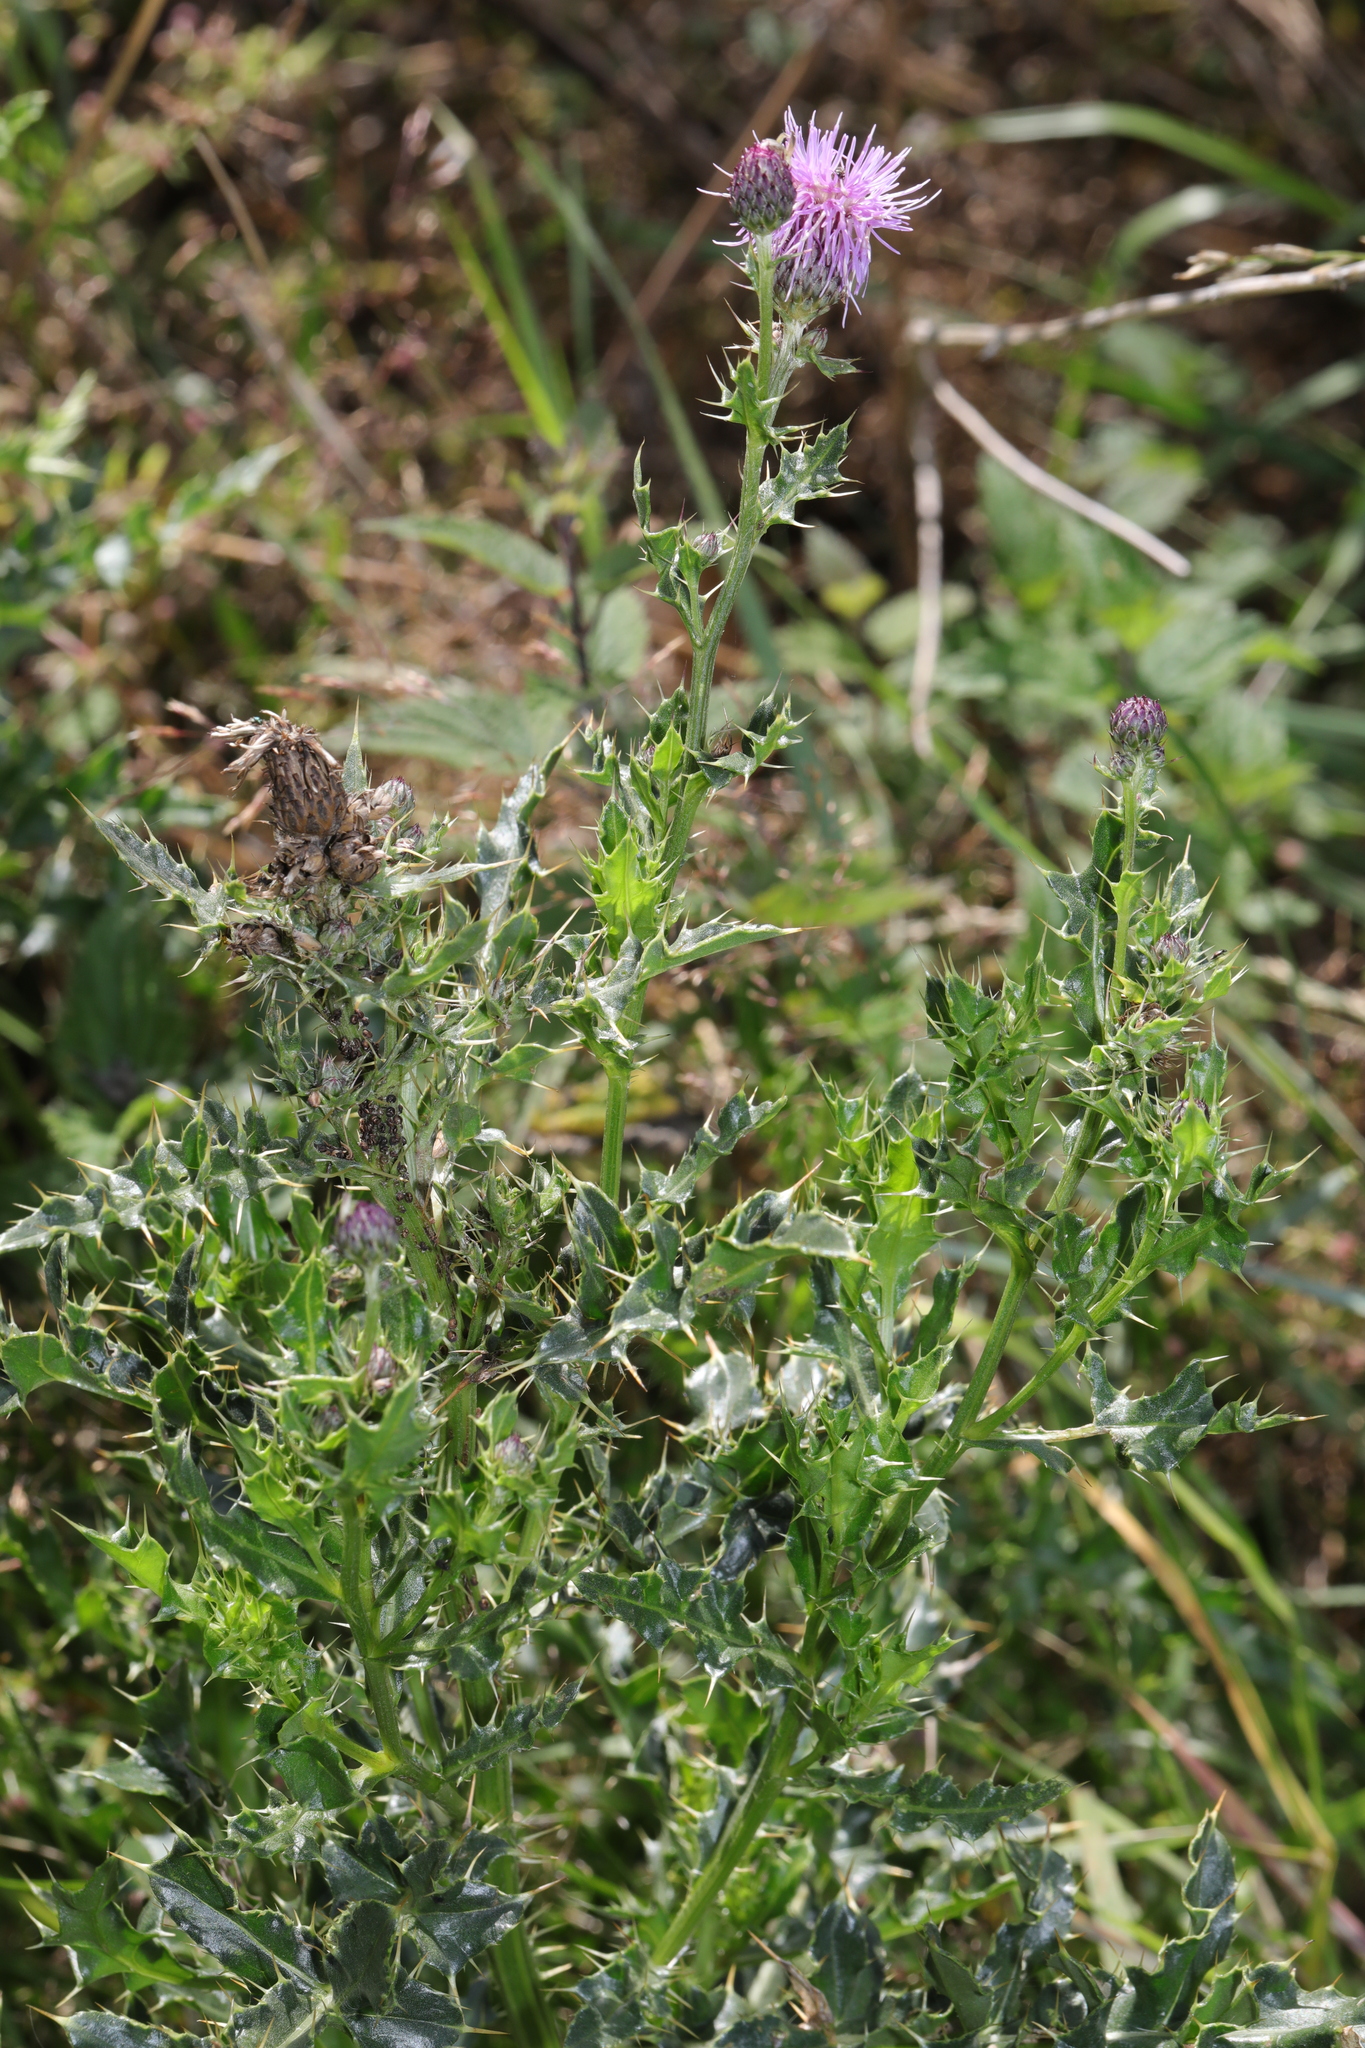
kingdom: Plantae
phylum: Tracheophyta
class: Magnoliopsida
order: Asterales
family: Asteraceae
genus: Cirsium
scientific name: Cirsium arvense
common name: Creeping thistle
